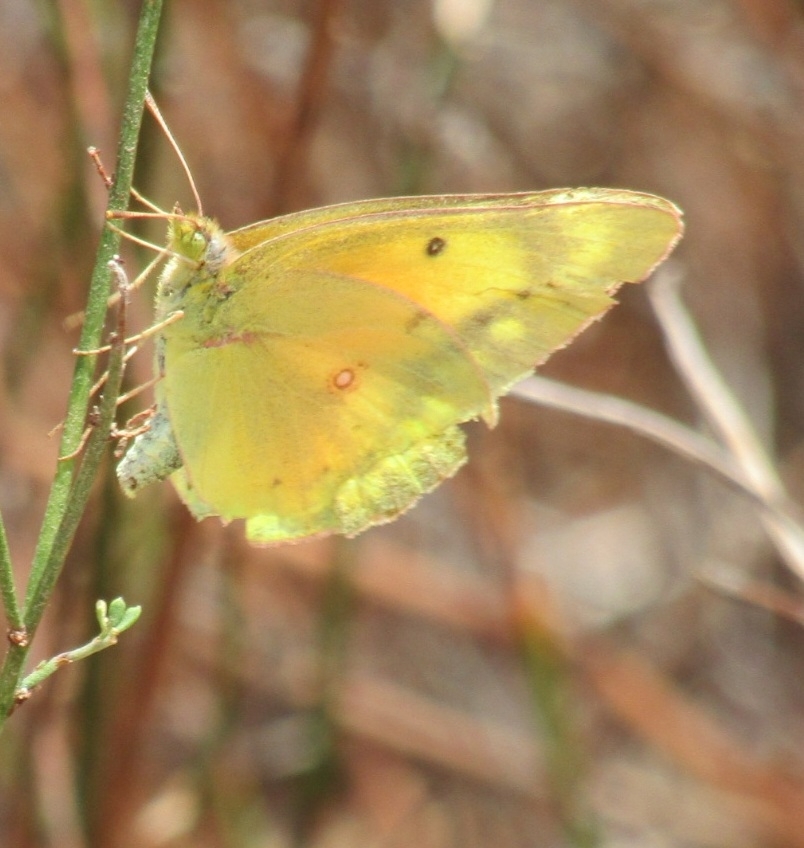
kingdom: Animalia
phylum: Arthropoda
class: Insecta
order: Lepidoptera
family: Pieridae
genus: Colias
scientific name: Colias eurytheme
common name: Alfalfa butterfly
